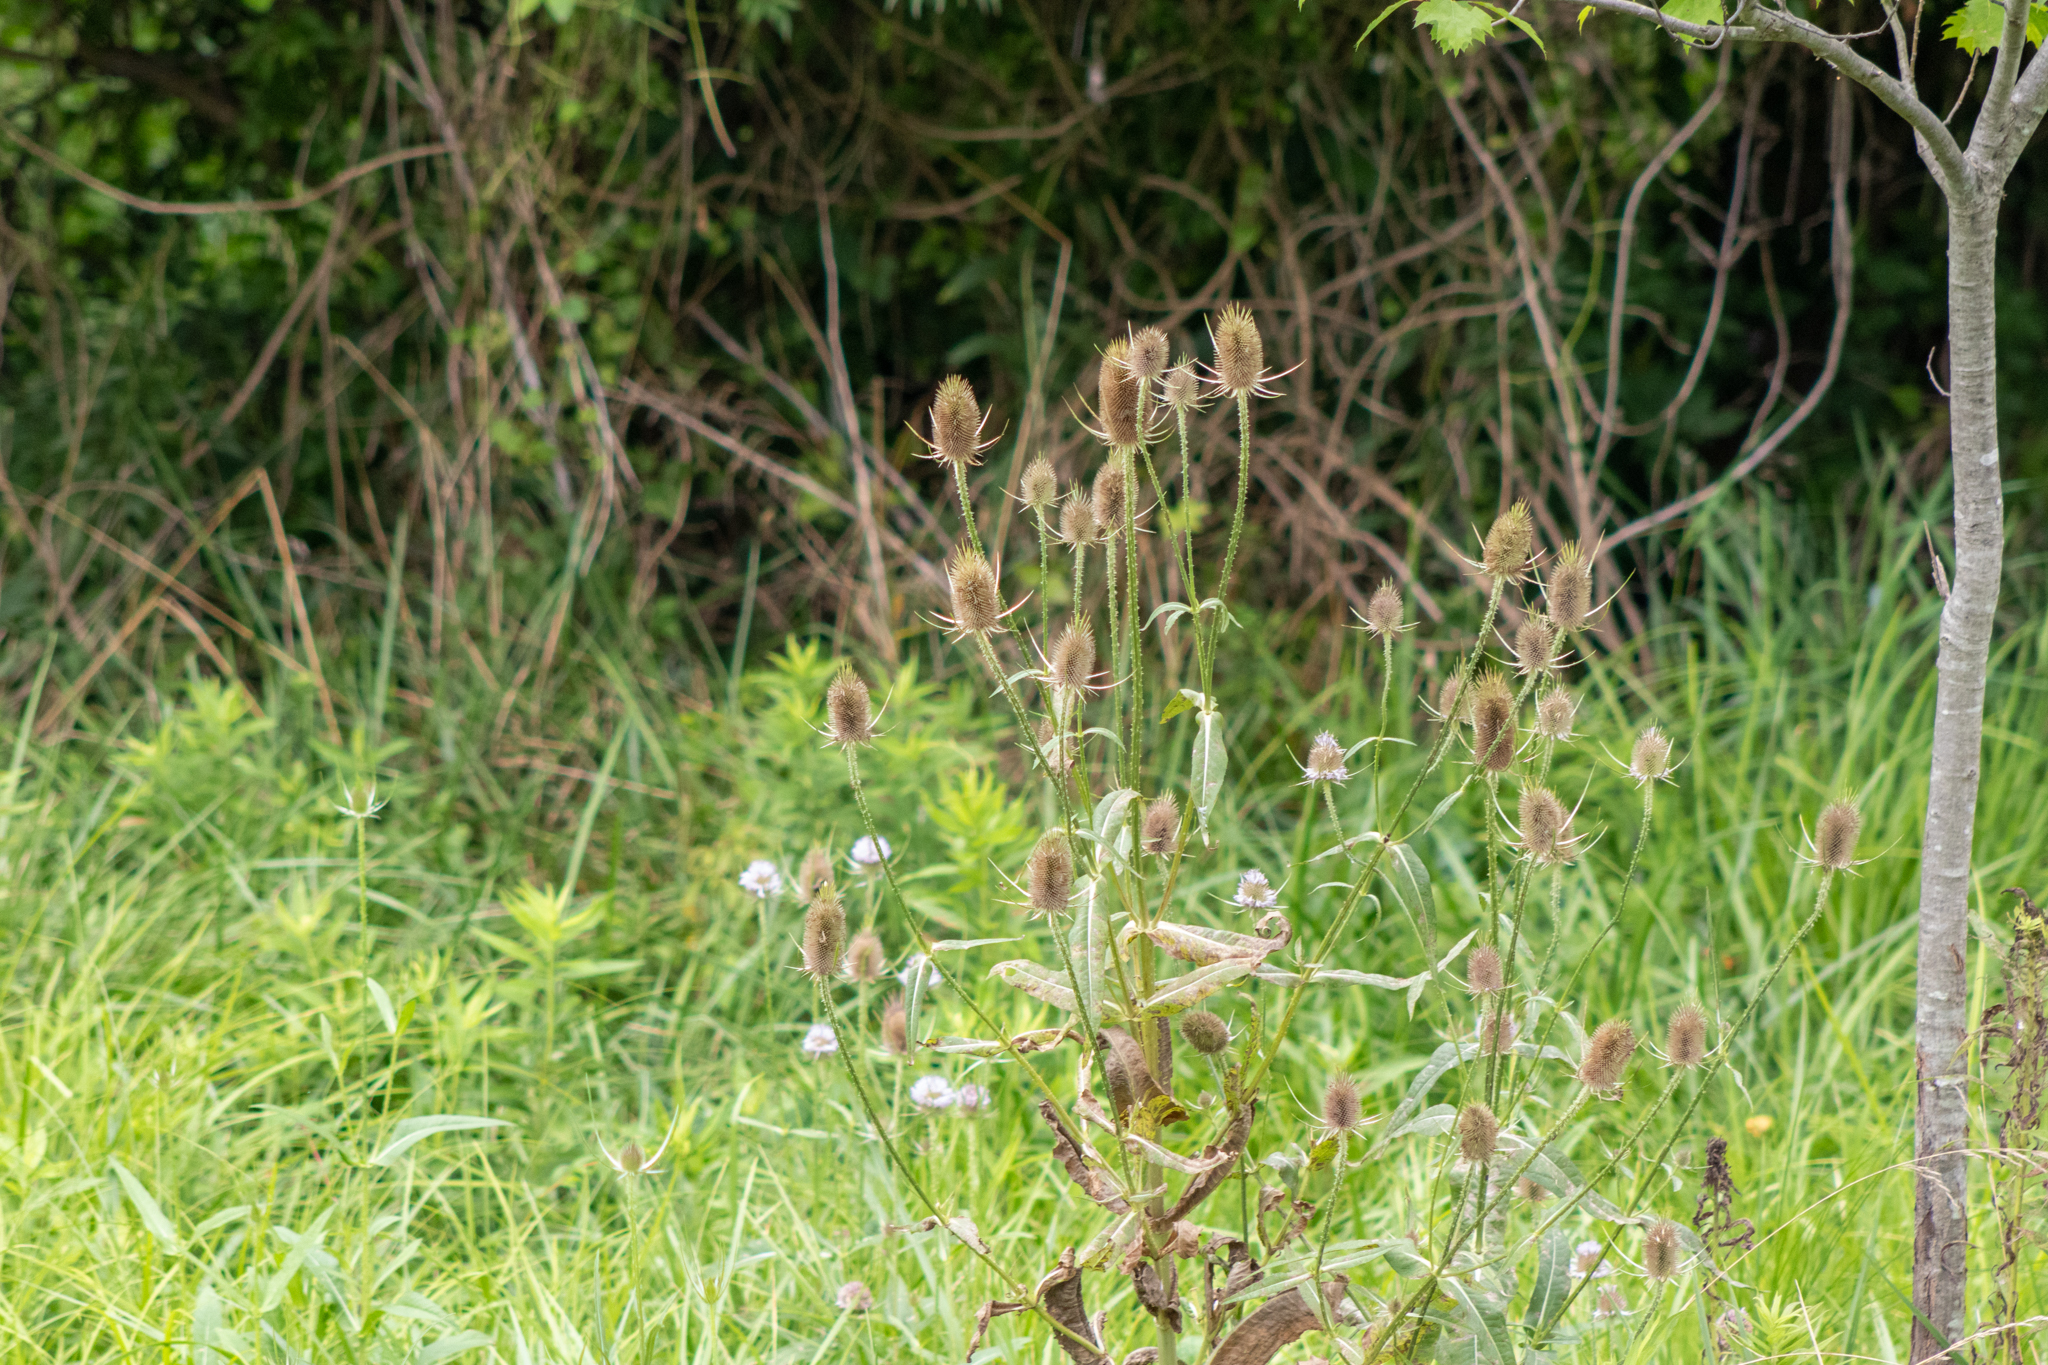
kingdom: Plantae
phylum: Tracheophyta
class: Magnoliopsida
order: Dipsacales
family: Caprifoliaceae
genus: Dipsacus
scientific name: Dipsacus fullonum
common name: Teasel
